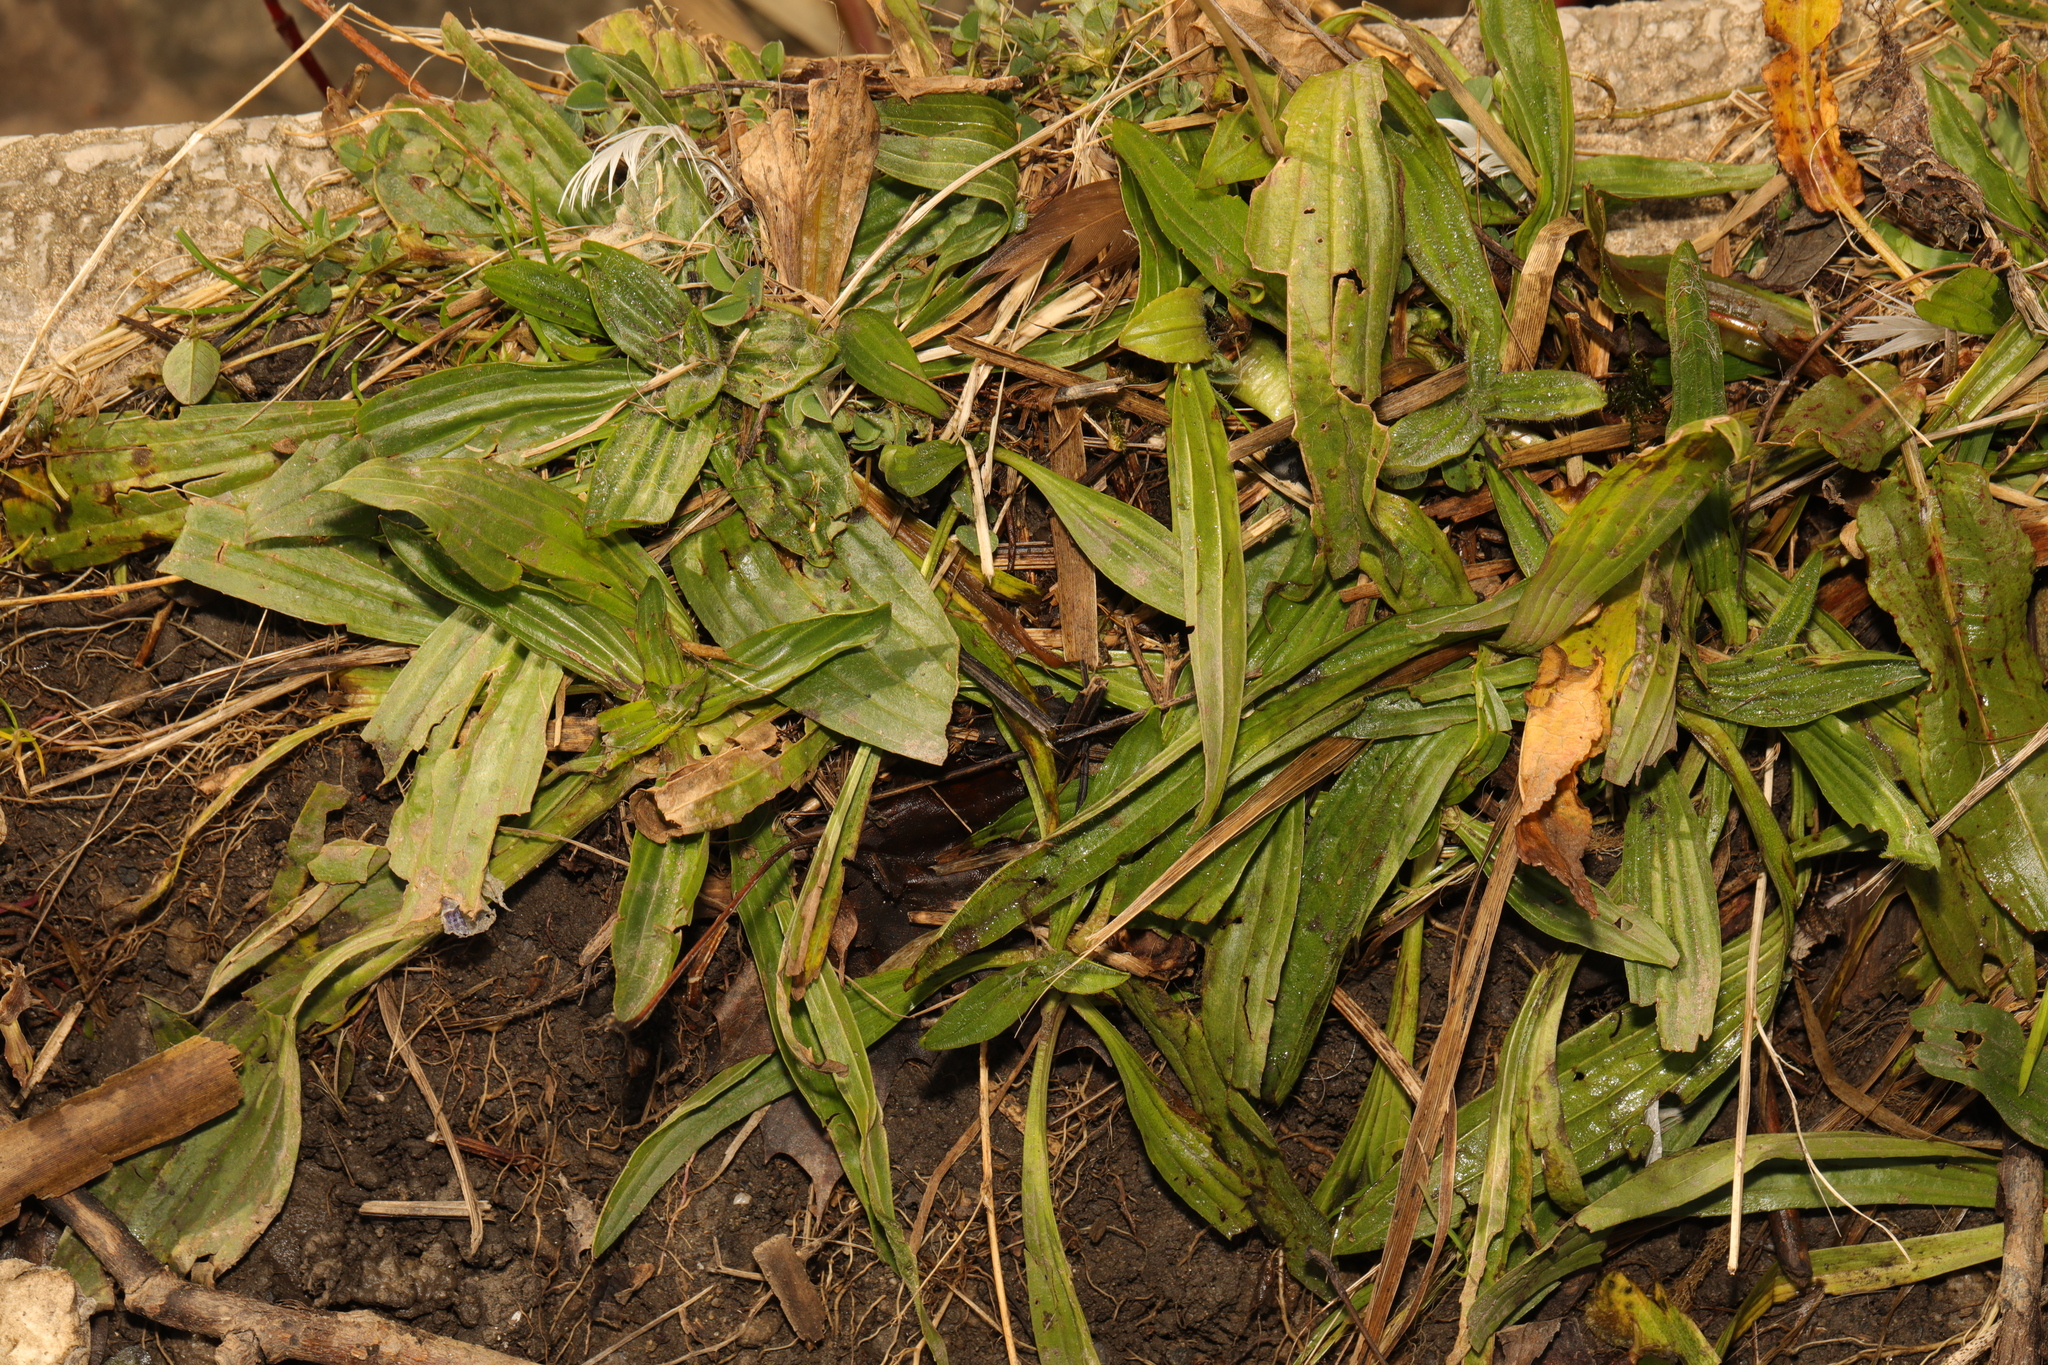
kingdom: Plantae
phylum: Tracheophyta
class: Magnoliopsida
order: Lamiales
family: Plantaginaceae
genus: Plantago
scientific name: Plantago lanceolata
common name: Ribwort plantain
